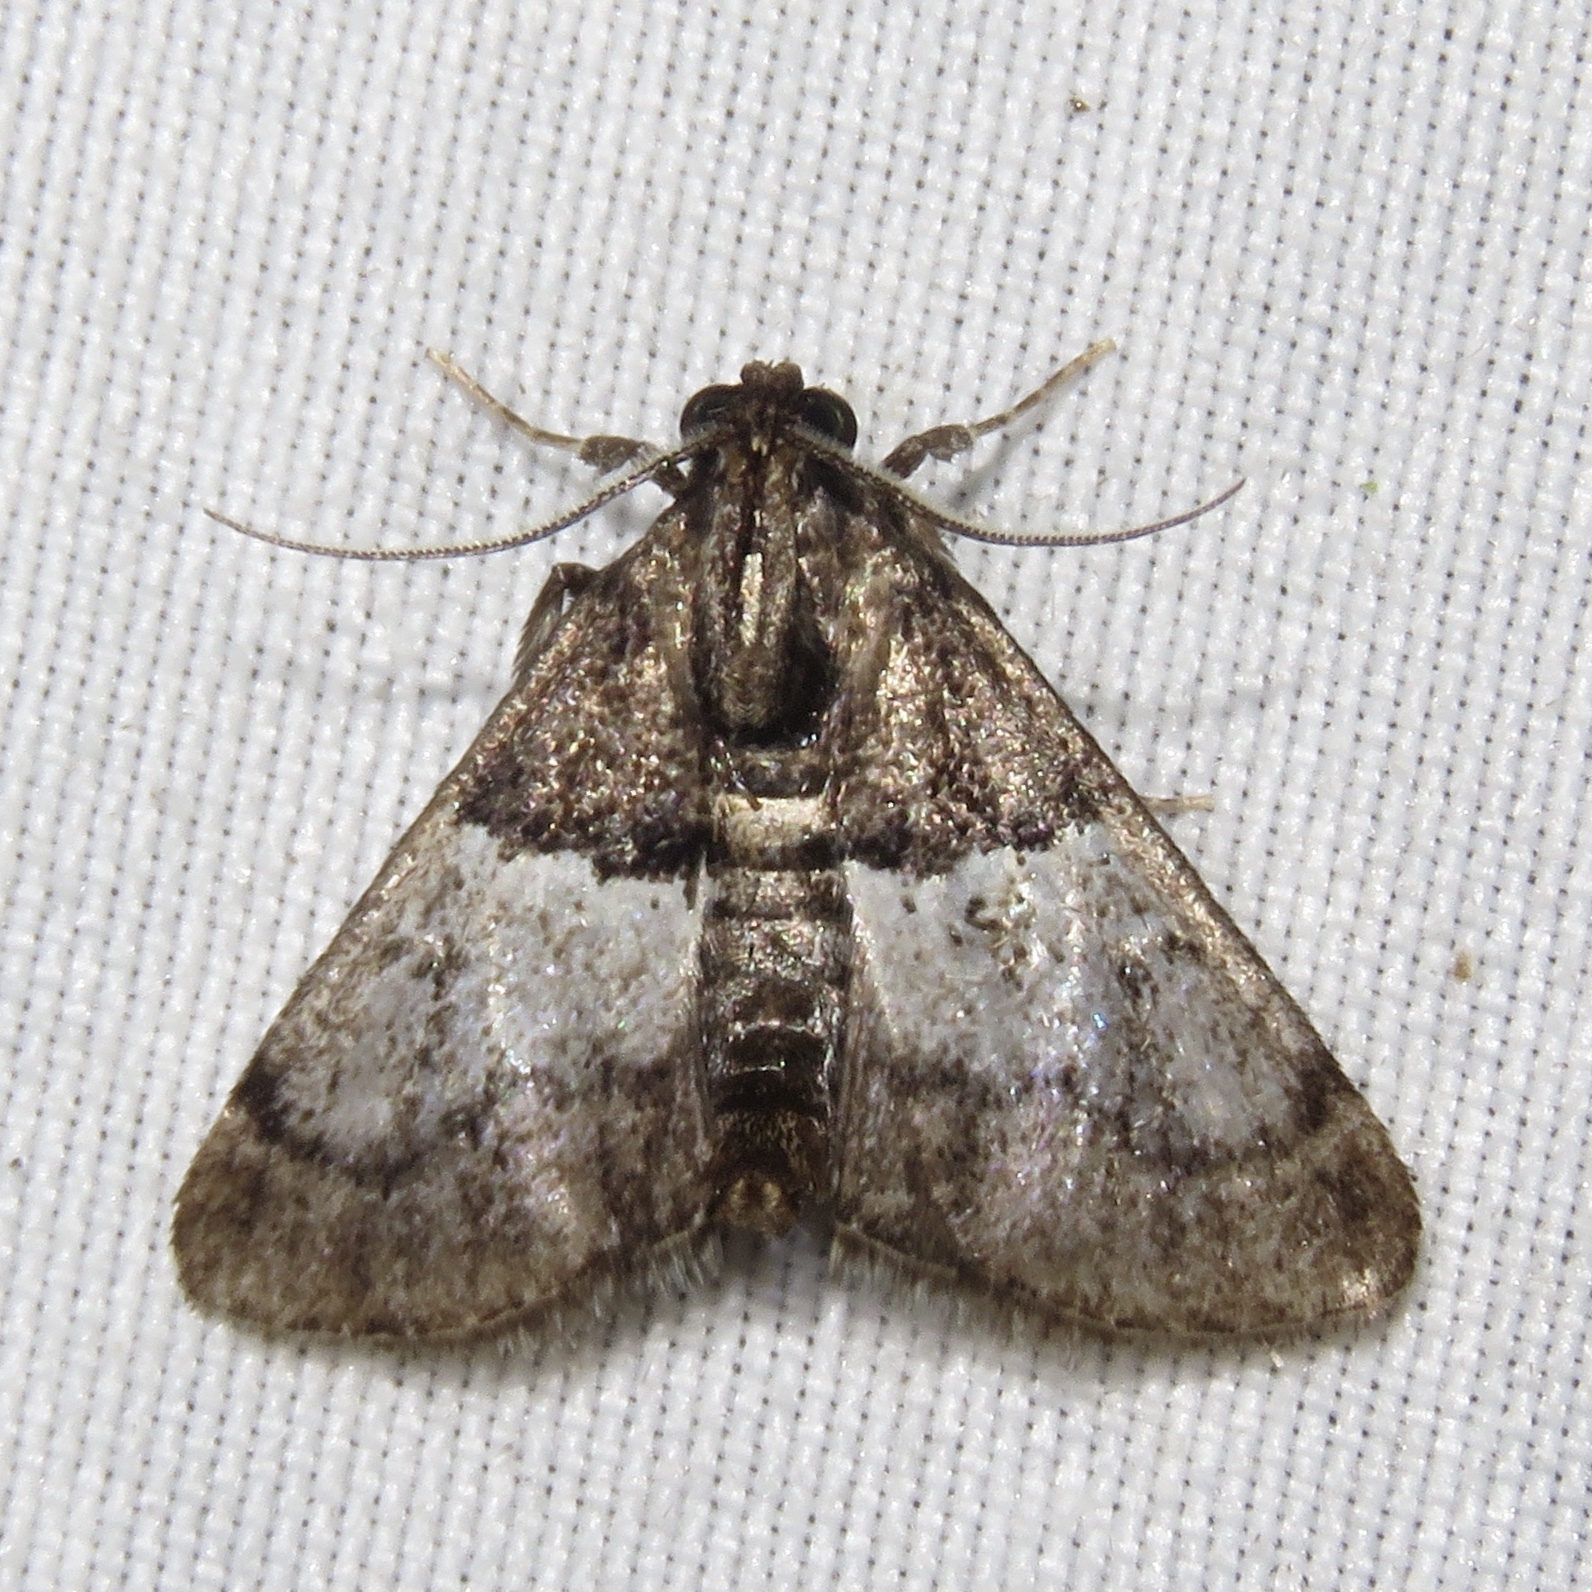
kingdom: Animalia
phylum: Arthropoda
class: Insecta
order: Lepidoptera
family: Pyralidae
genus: Macalla
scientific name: Macalla zelleri
